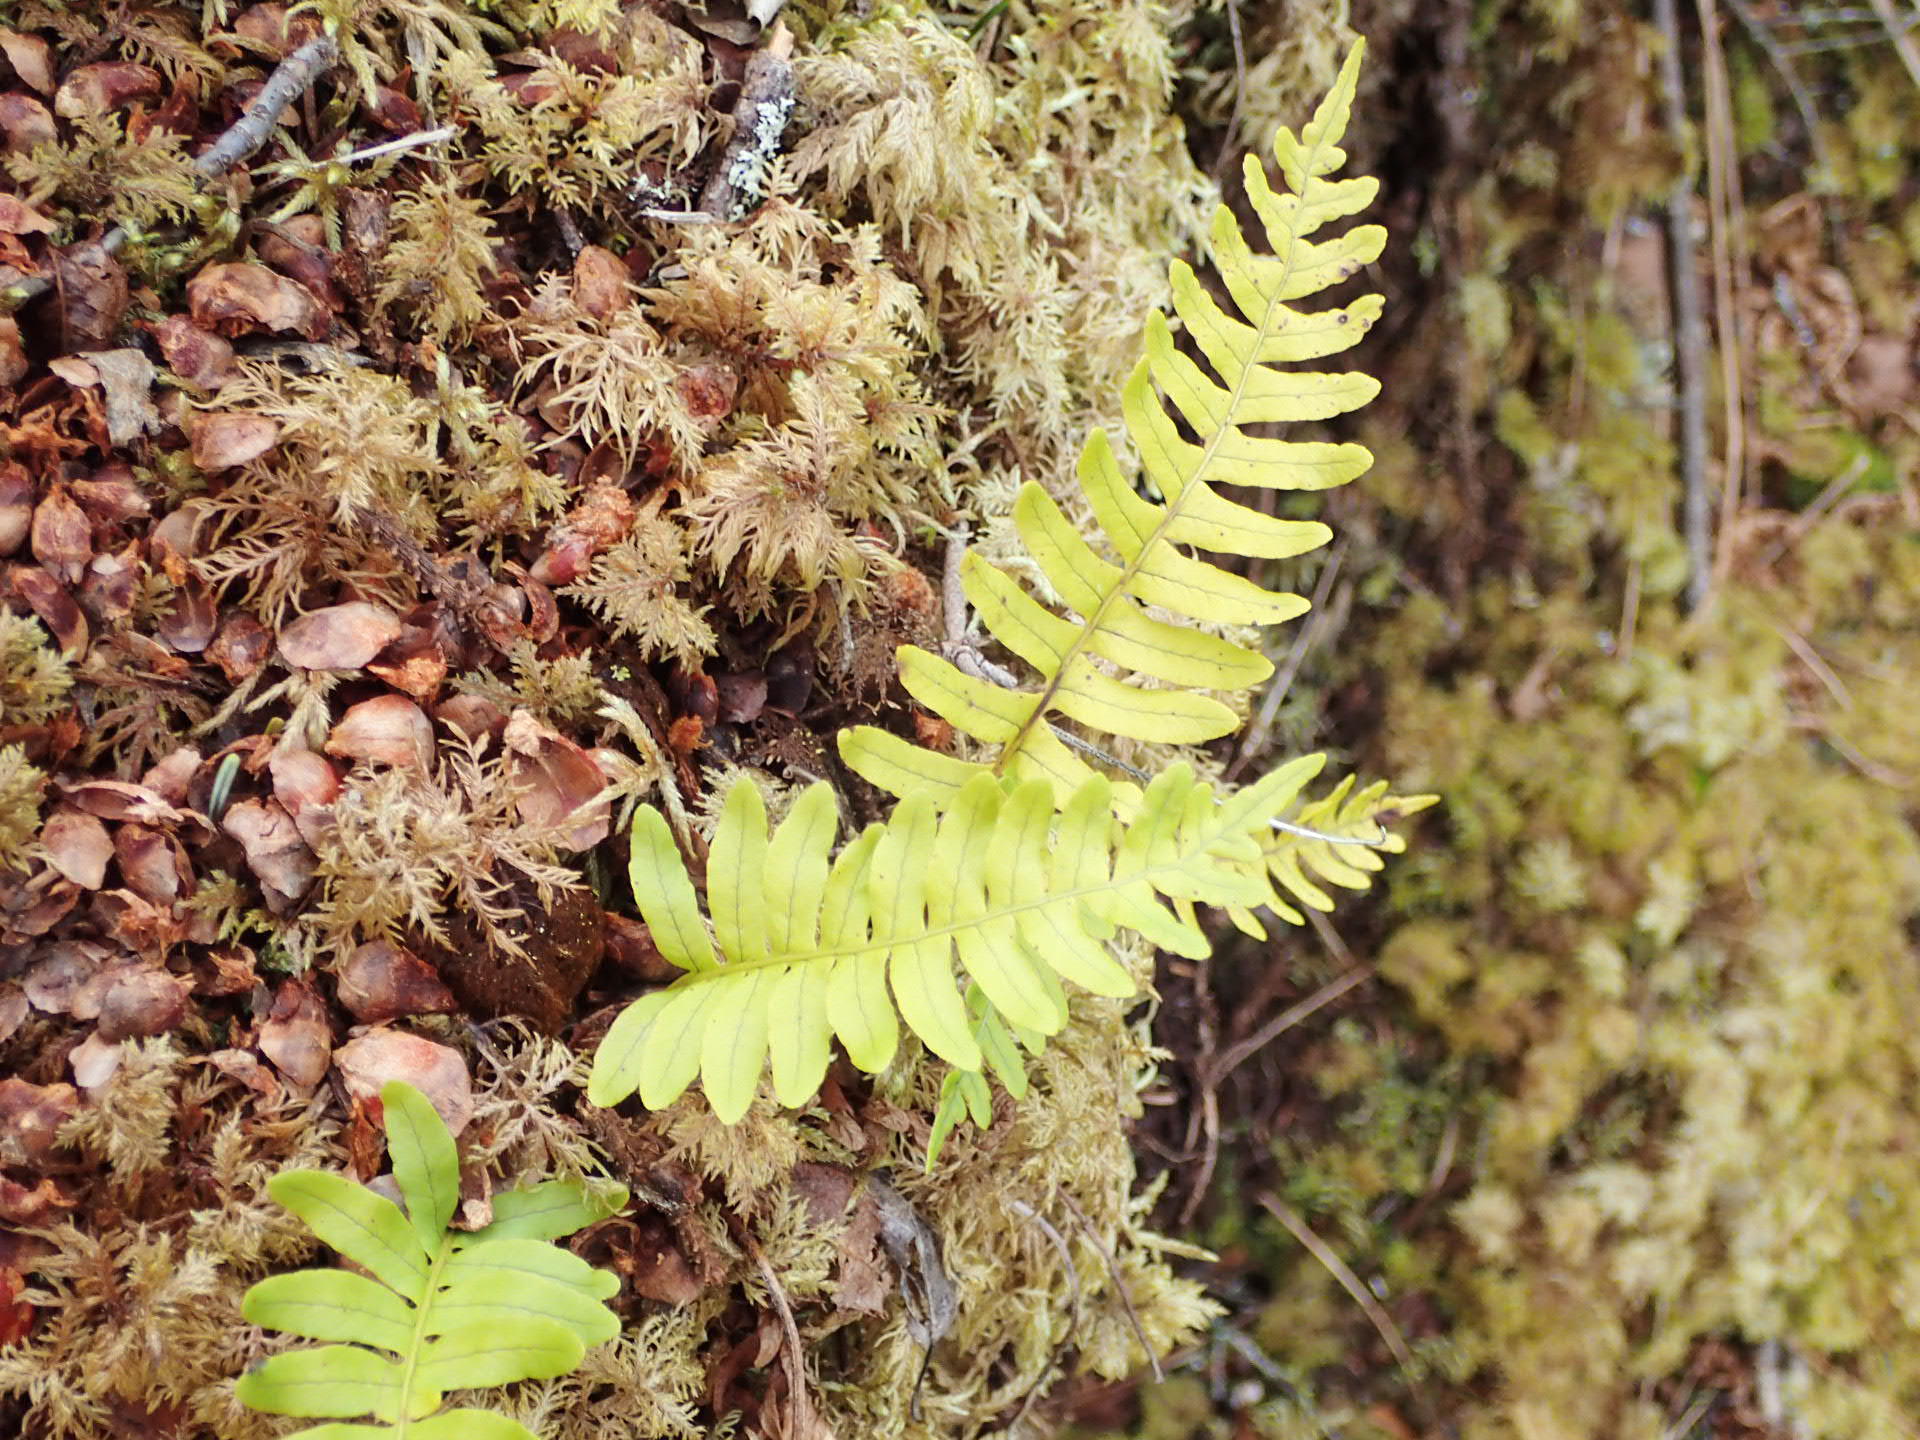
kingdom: Plantae
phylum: Tracheophyta
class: Polypodiopsida
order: Polypodiales
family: Polypodiaceae
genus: Polypodium
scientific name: Polypodium virginianum
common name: American wall fern
